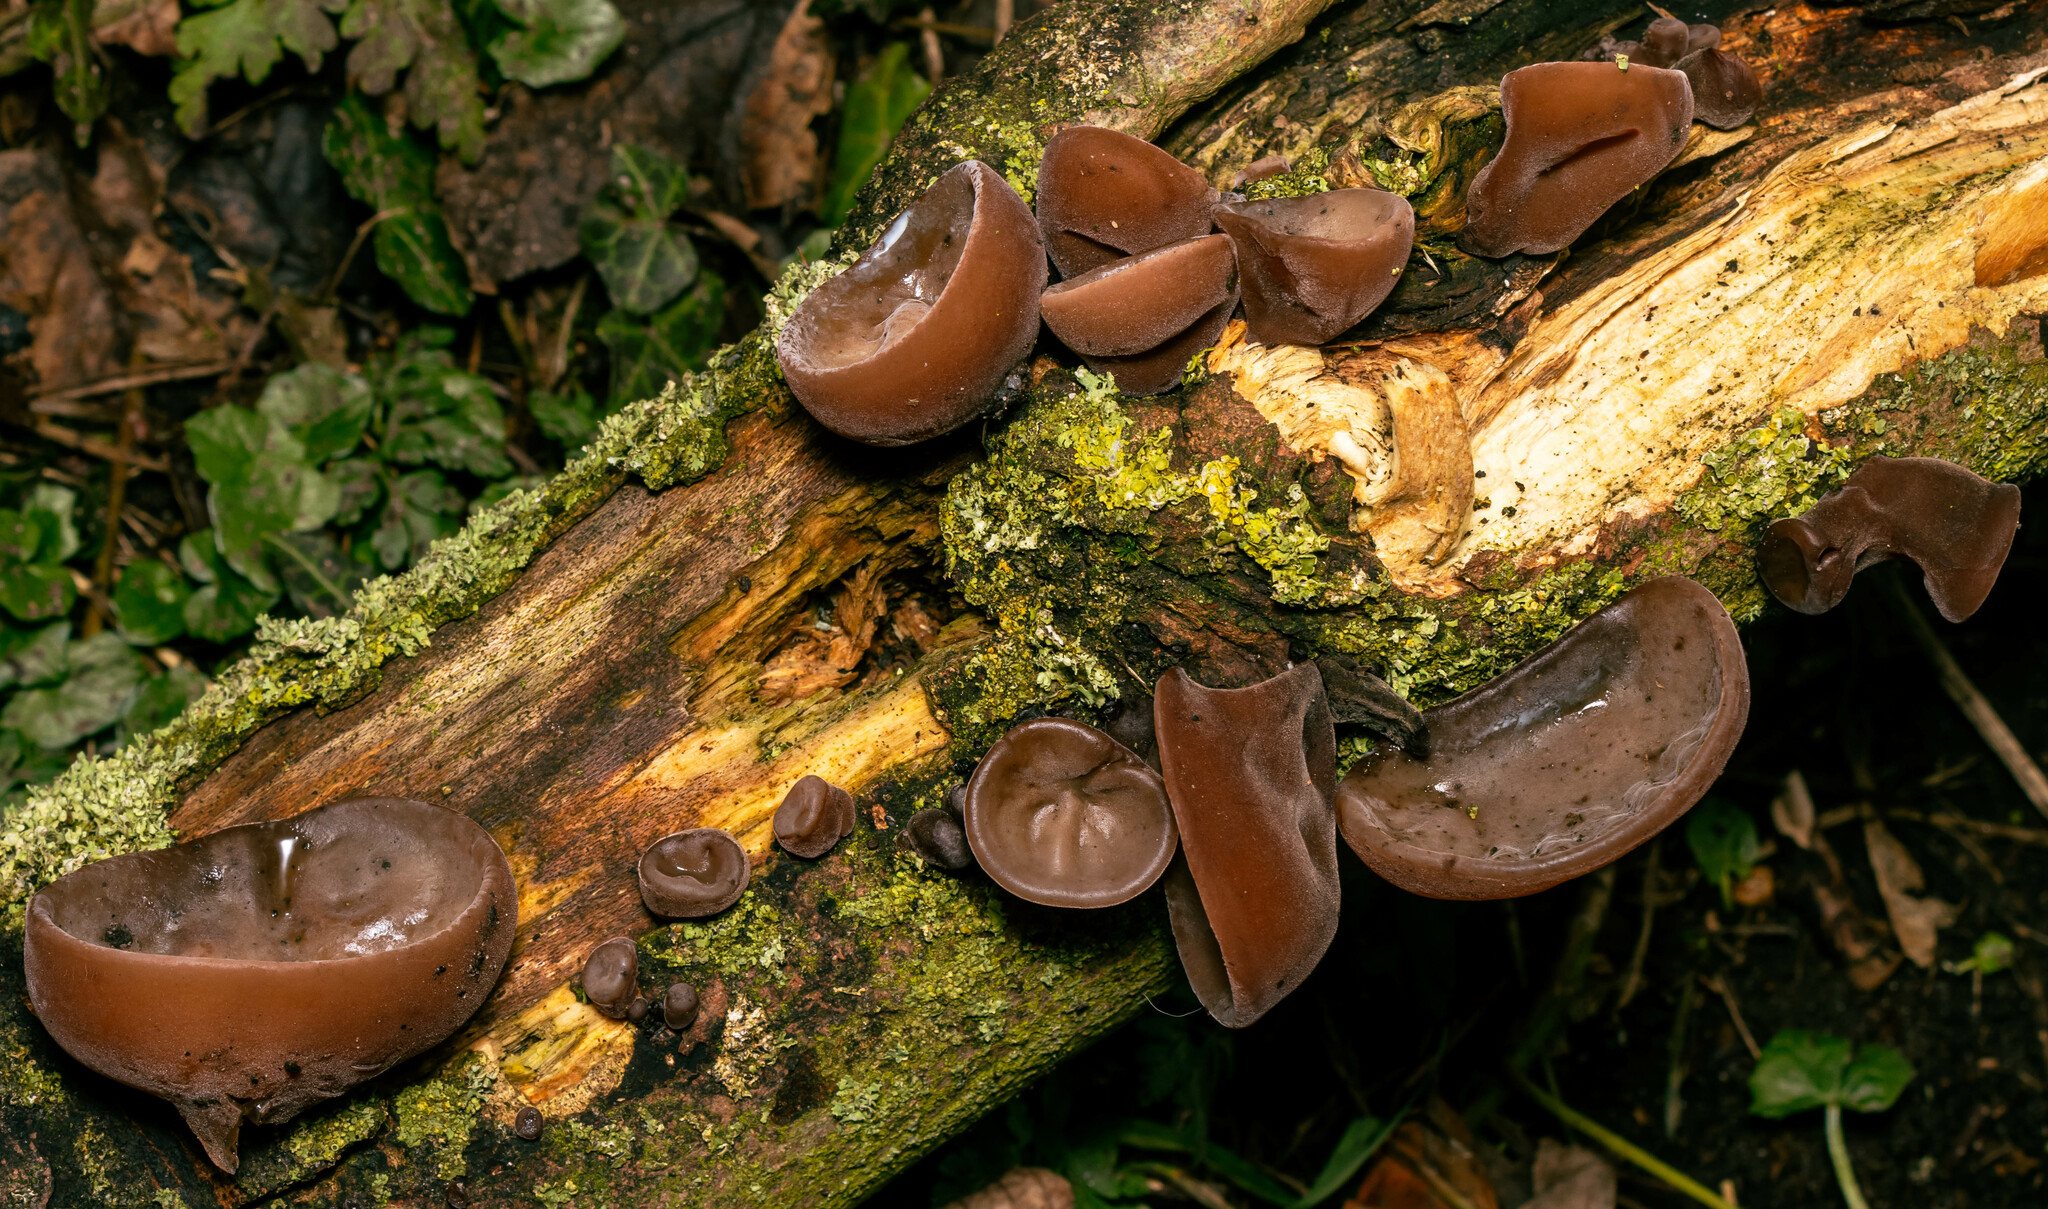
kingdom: Fungi
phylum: Basidiomycota
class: Agaricomycetes
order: Auriculariales
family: Auriculariaceae
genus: Auricularia
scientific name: Auricularia auricula-judae
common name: Jelly ear
